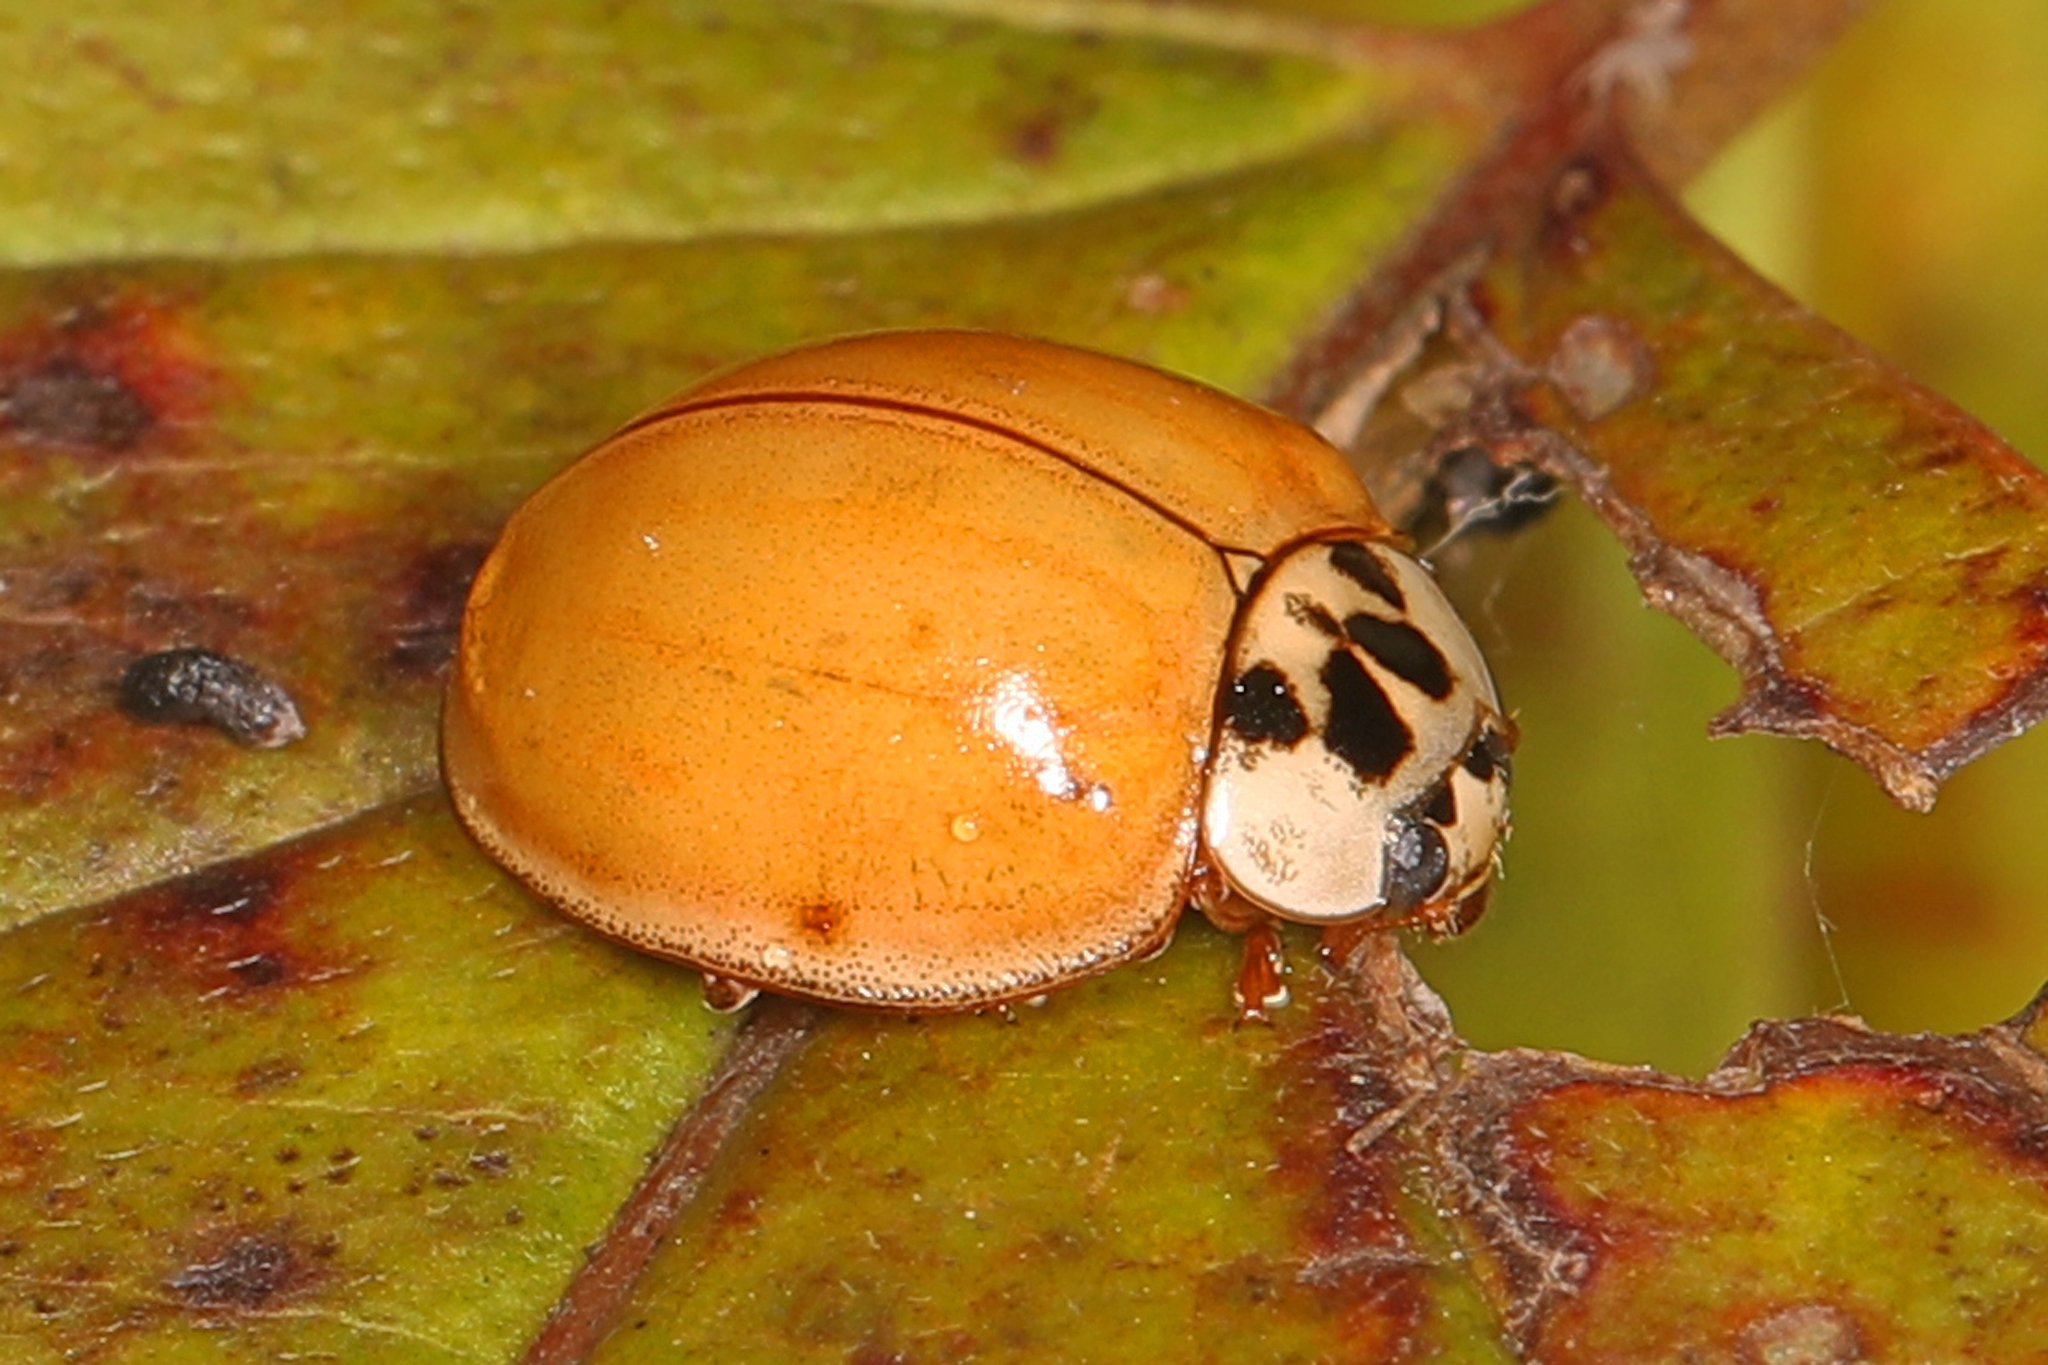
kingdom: Animalia
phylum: Arthropoda
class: Insecta
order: Coleoptera
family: Coccinellidae
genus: Harmonia
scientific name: Harmonia axyridis
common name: Harlequin ladybird
